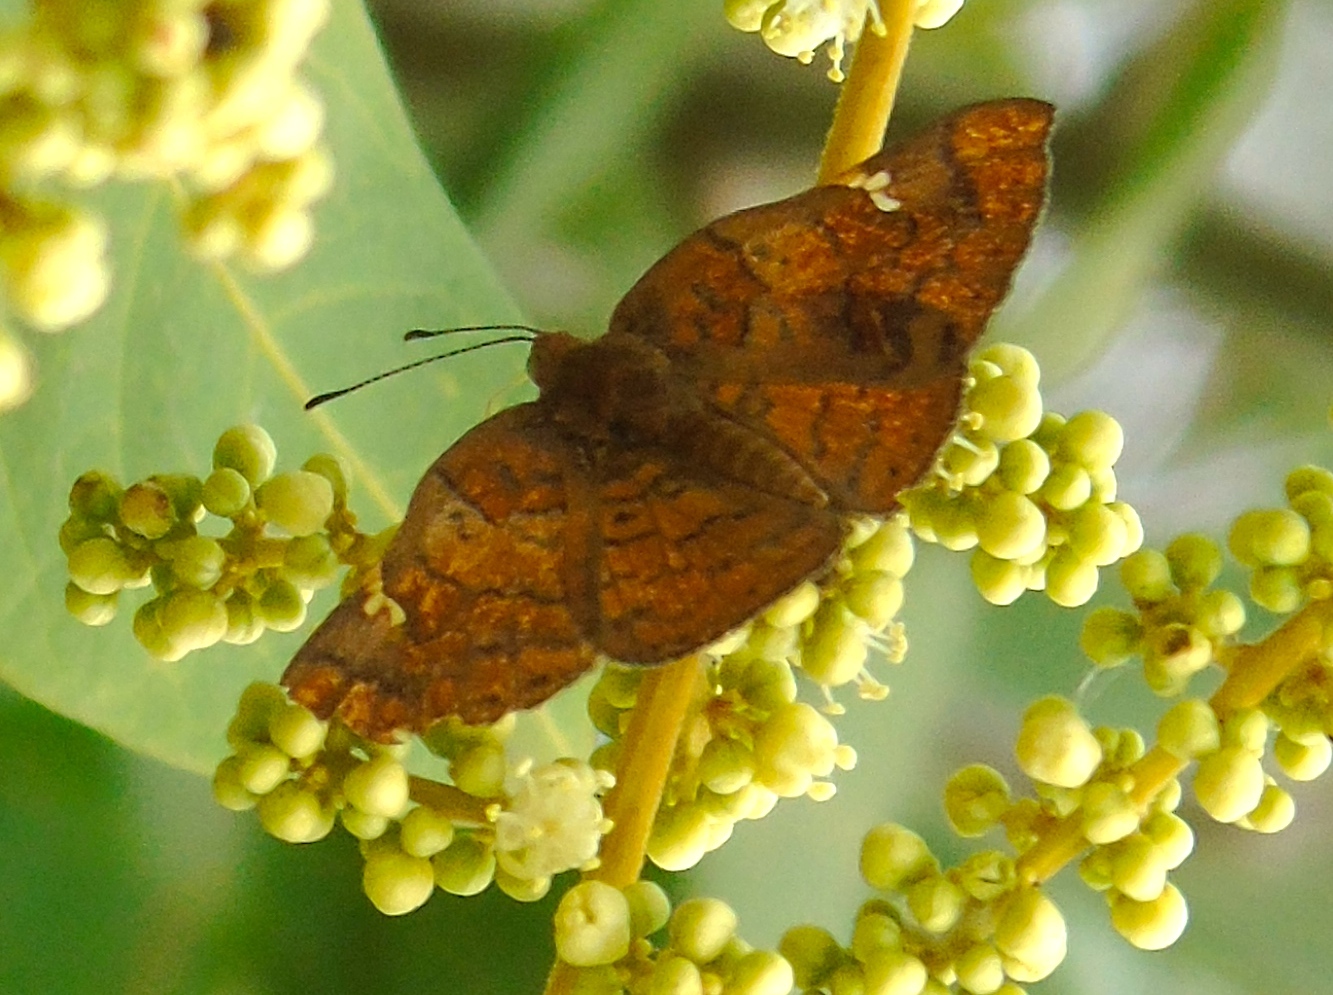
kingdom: Animalia
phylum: Arthropoda
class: Insecta
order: Lepidoptera
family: Riodinidae
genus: Curvie
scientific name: Curvie emesia
